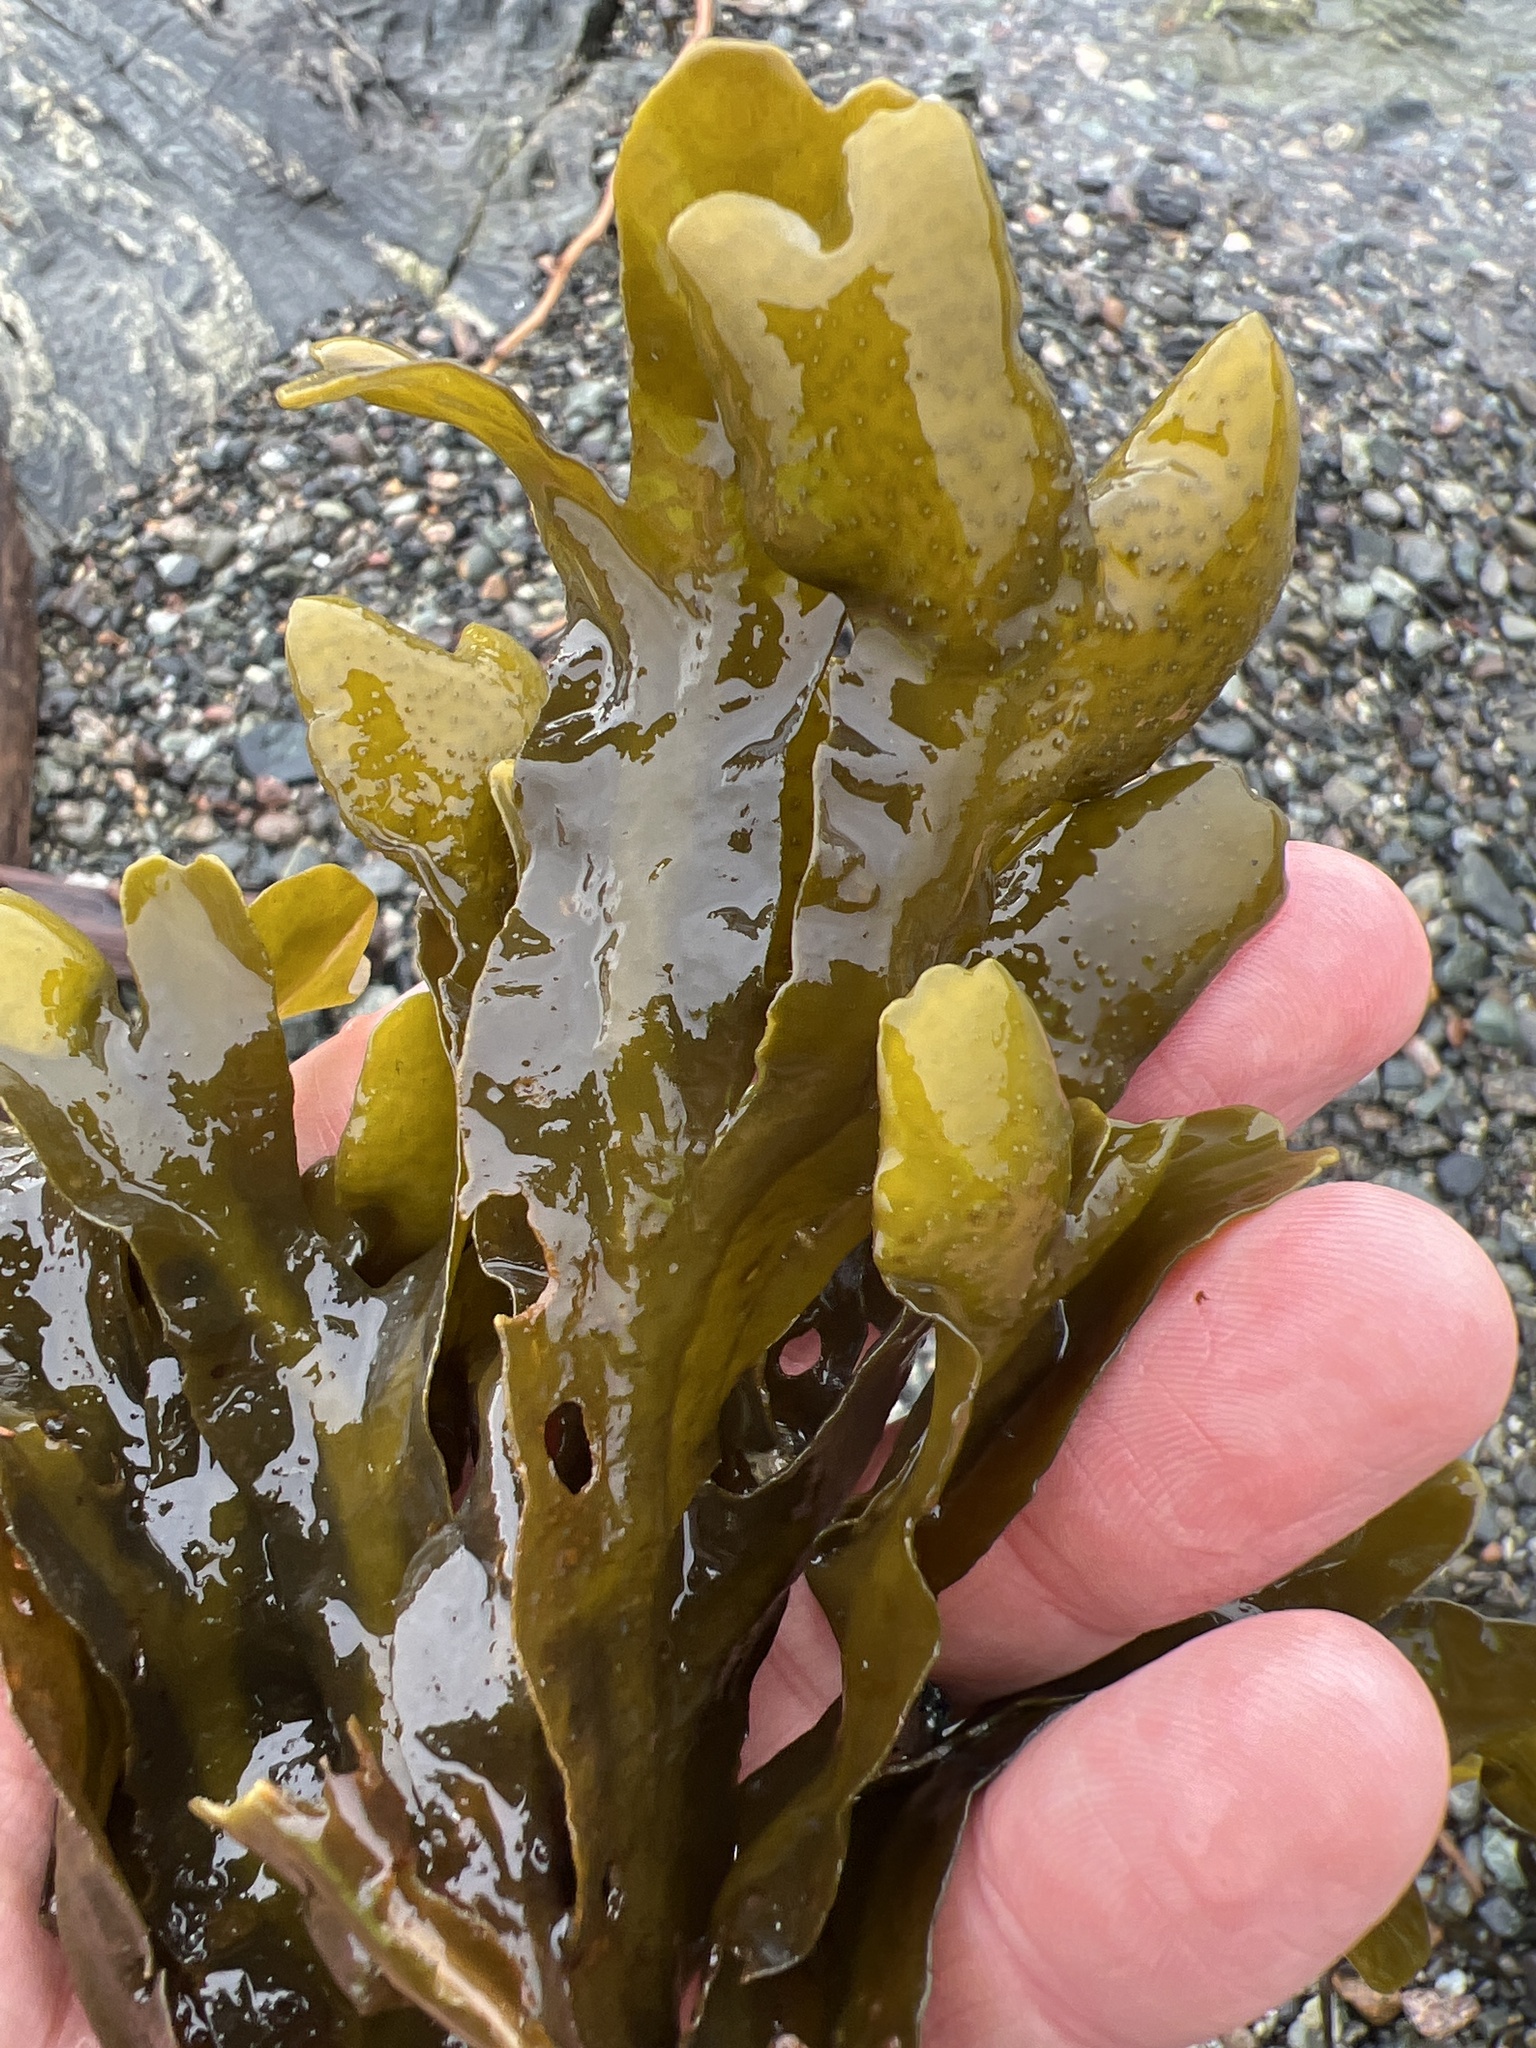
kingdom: Chromista
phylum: Ochrophyta
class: Phaeophyceae
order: Fucales
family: Fucaceae
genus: Fucus
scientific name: Fucus distichus
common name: Rockweed
